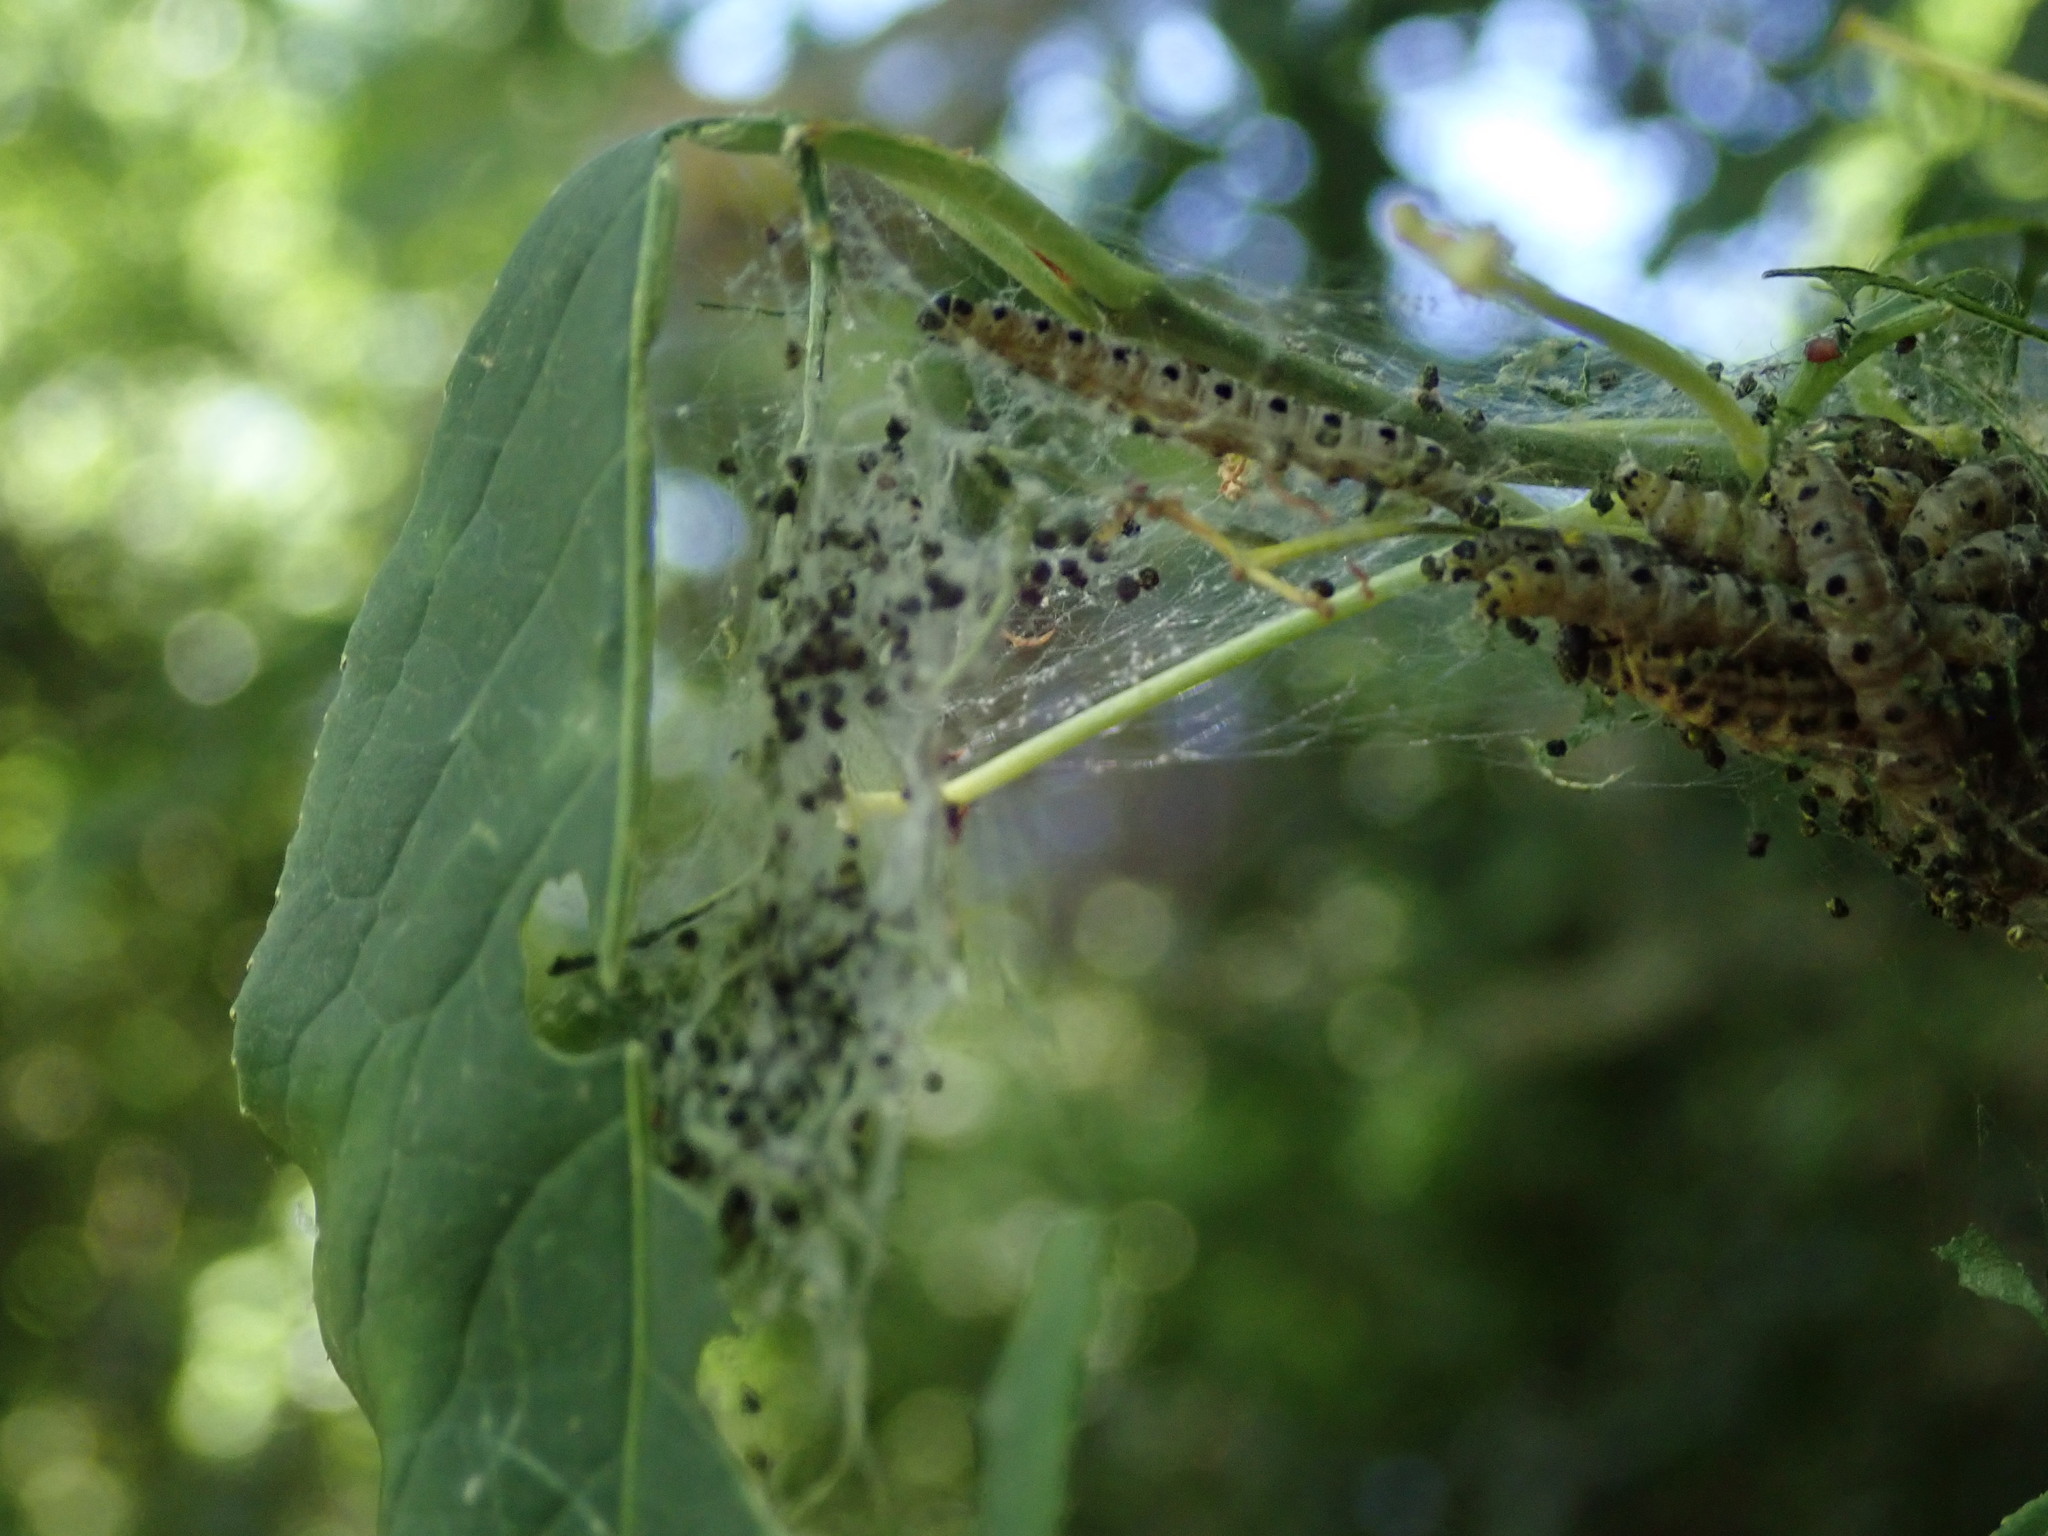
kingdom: Animalia
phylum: Arthropoda
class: Insecta
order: Lepidoptera
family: Yponomeutidae
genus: Yponomeuta
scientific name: Yponomeuta cagnagellus
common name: Spindle ermine
